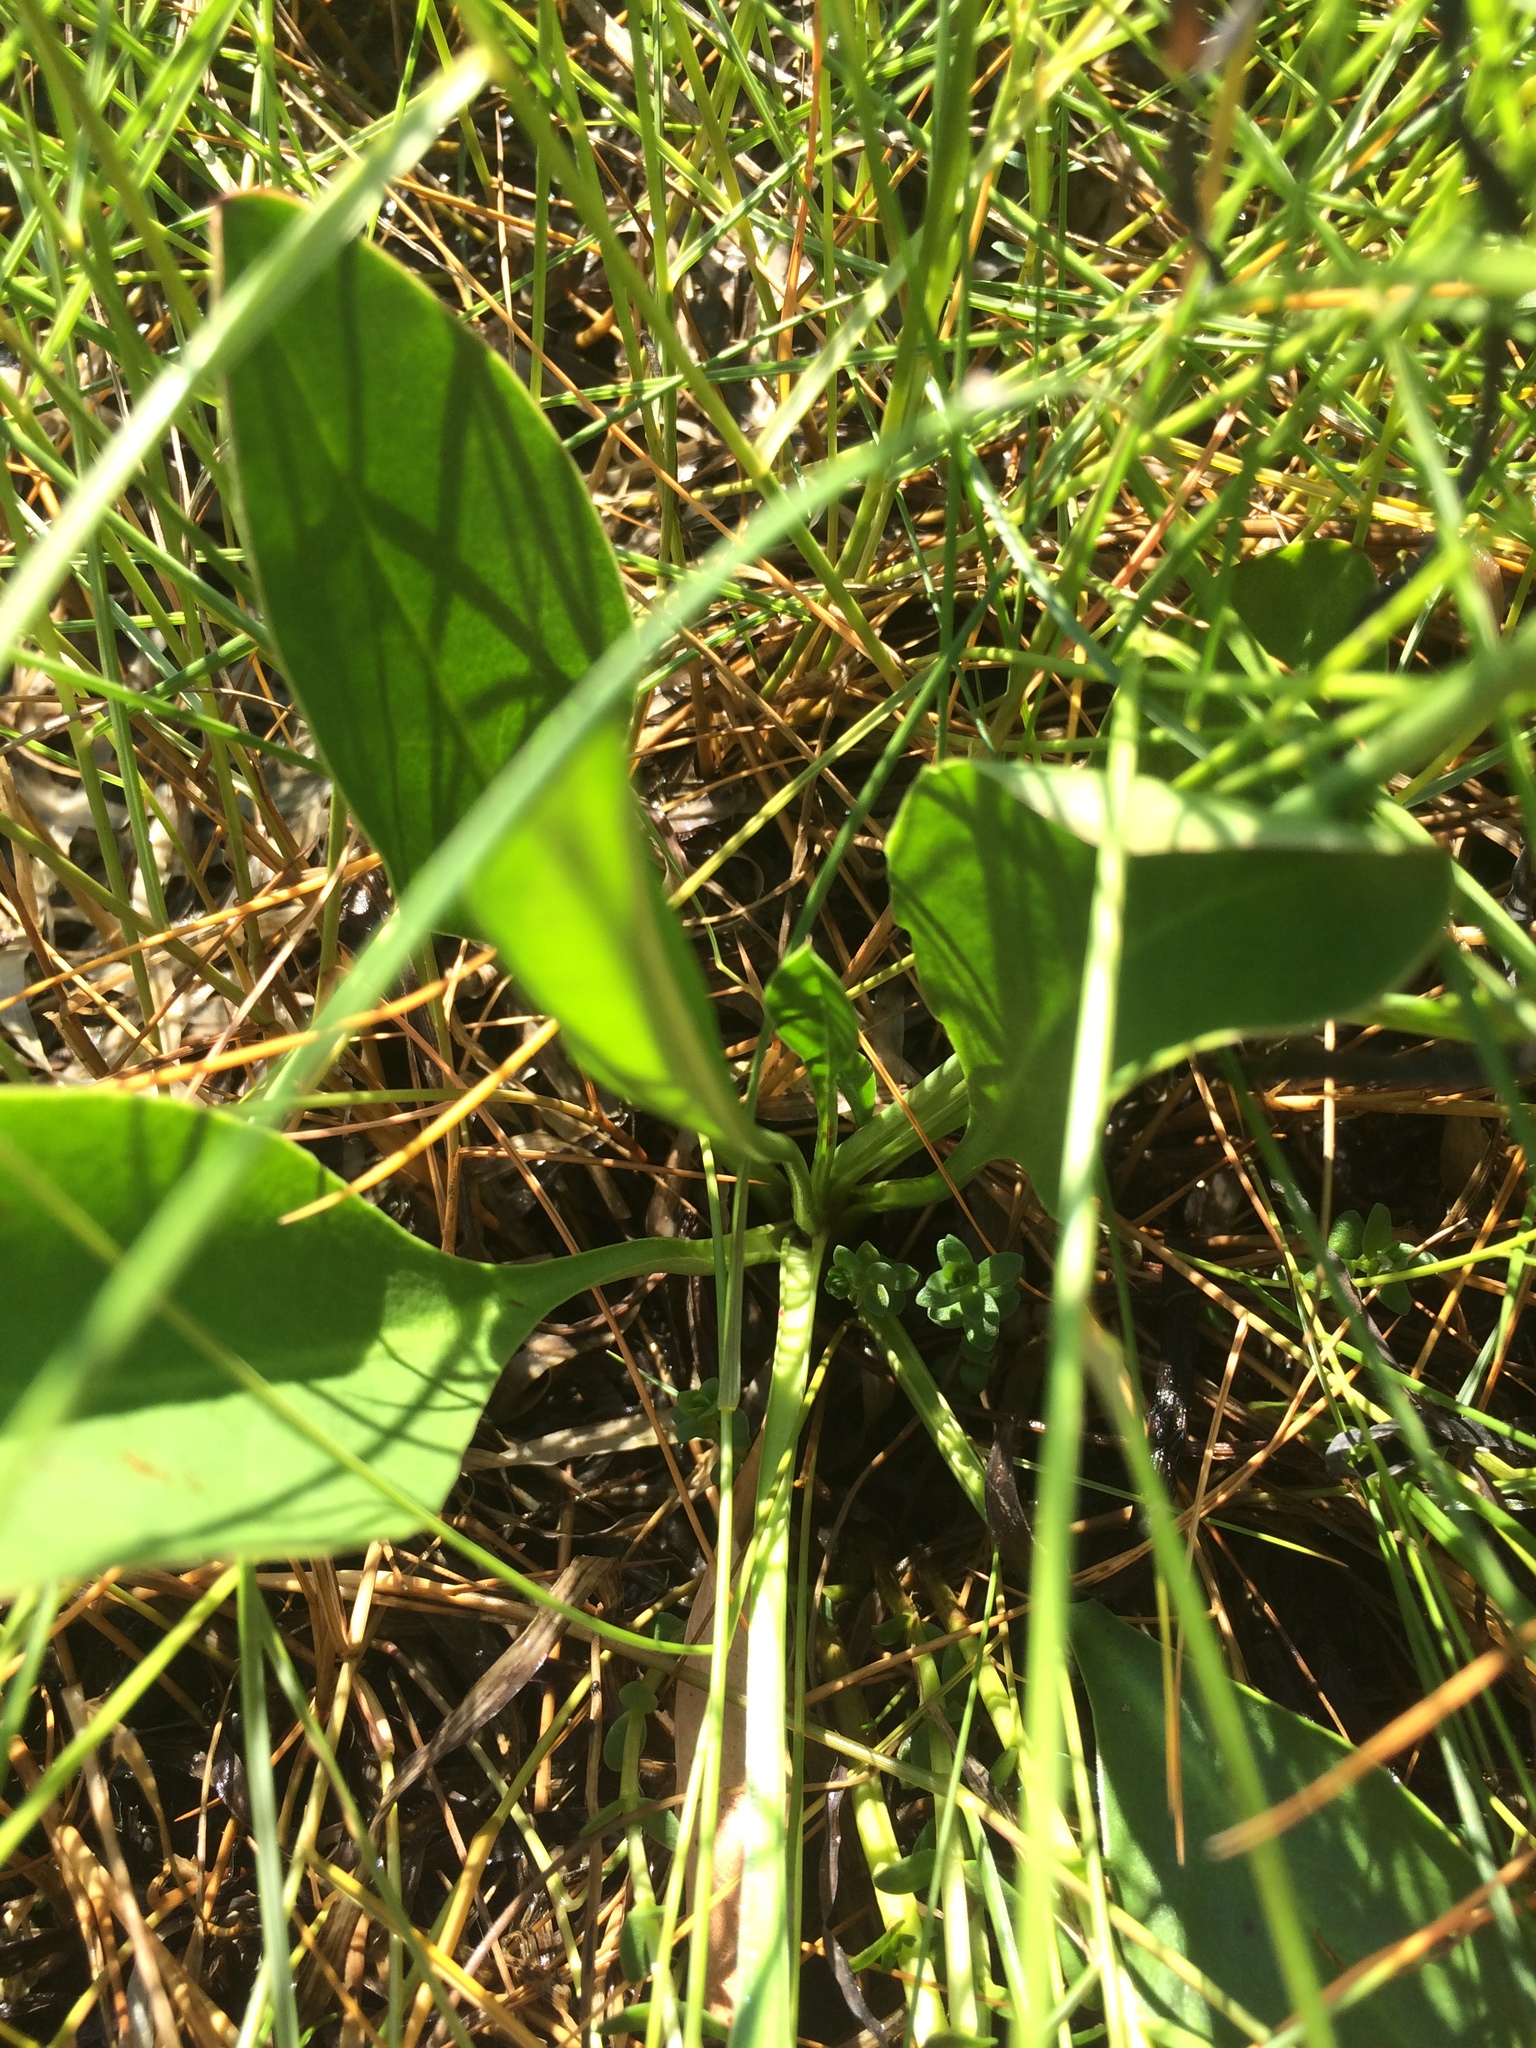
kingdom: Plantae
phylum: Tracheophyta
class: Magnoliopsida
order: Caryophyllales
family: Plumbaginaceae
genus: Limonium
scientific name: Limonium carolinianum
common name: Carolina sea lavender
